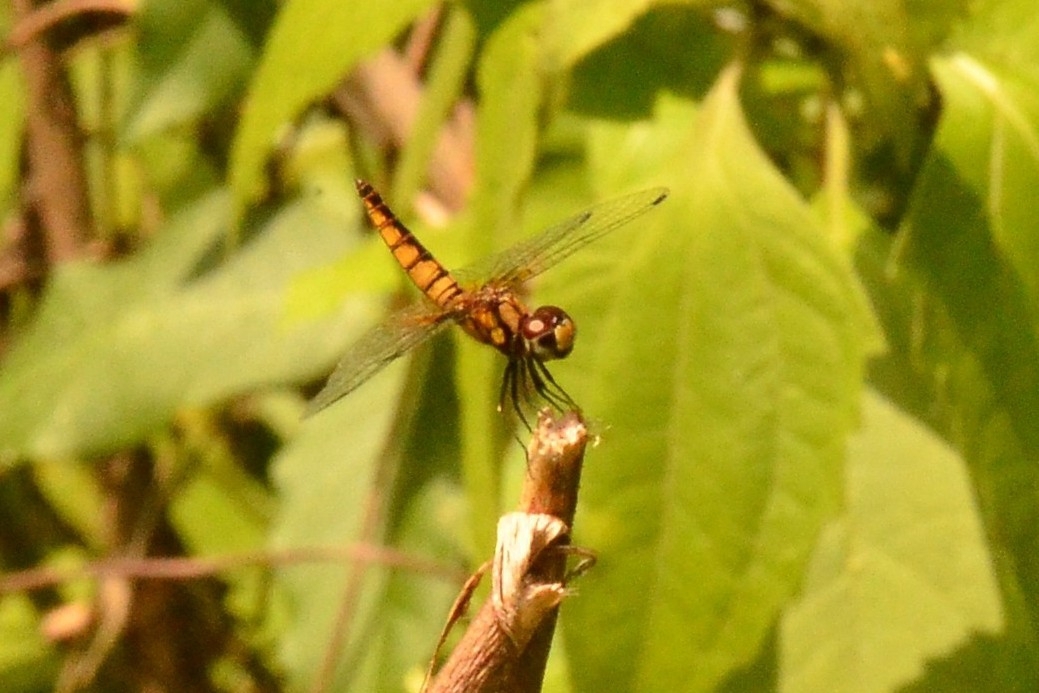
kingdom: Animalia
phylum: Arthropoda
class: Insecta
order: Odonata
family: Libellulidae
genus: Aethriamanta
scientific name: Aethriamanta brevipennis
